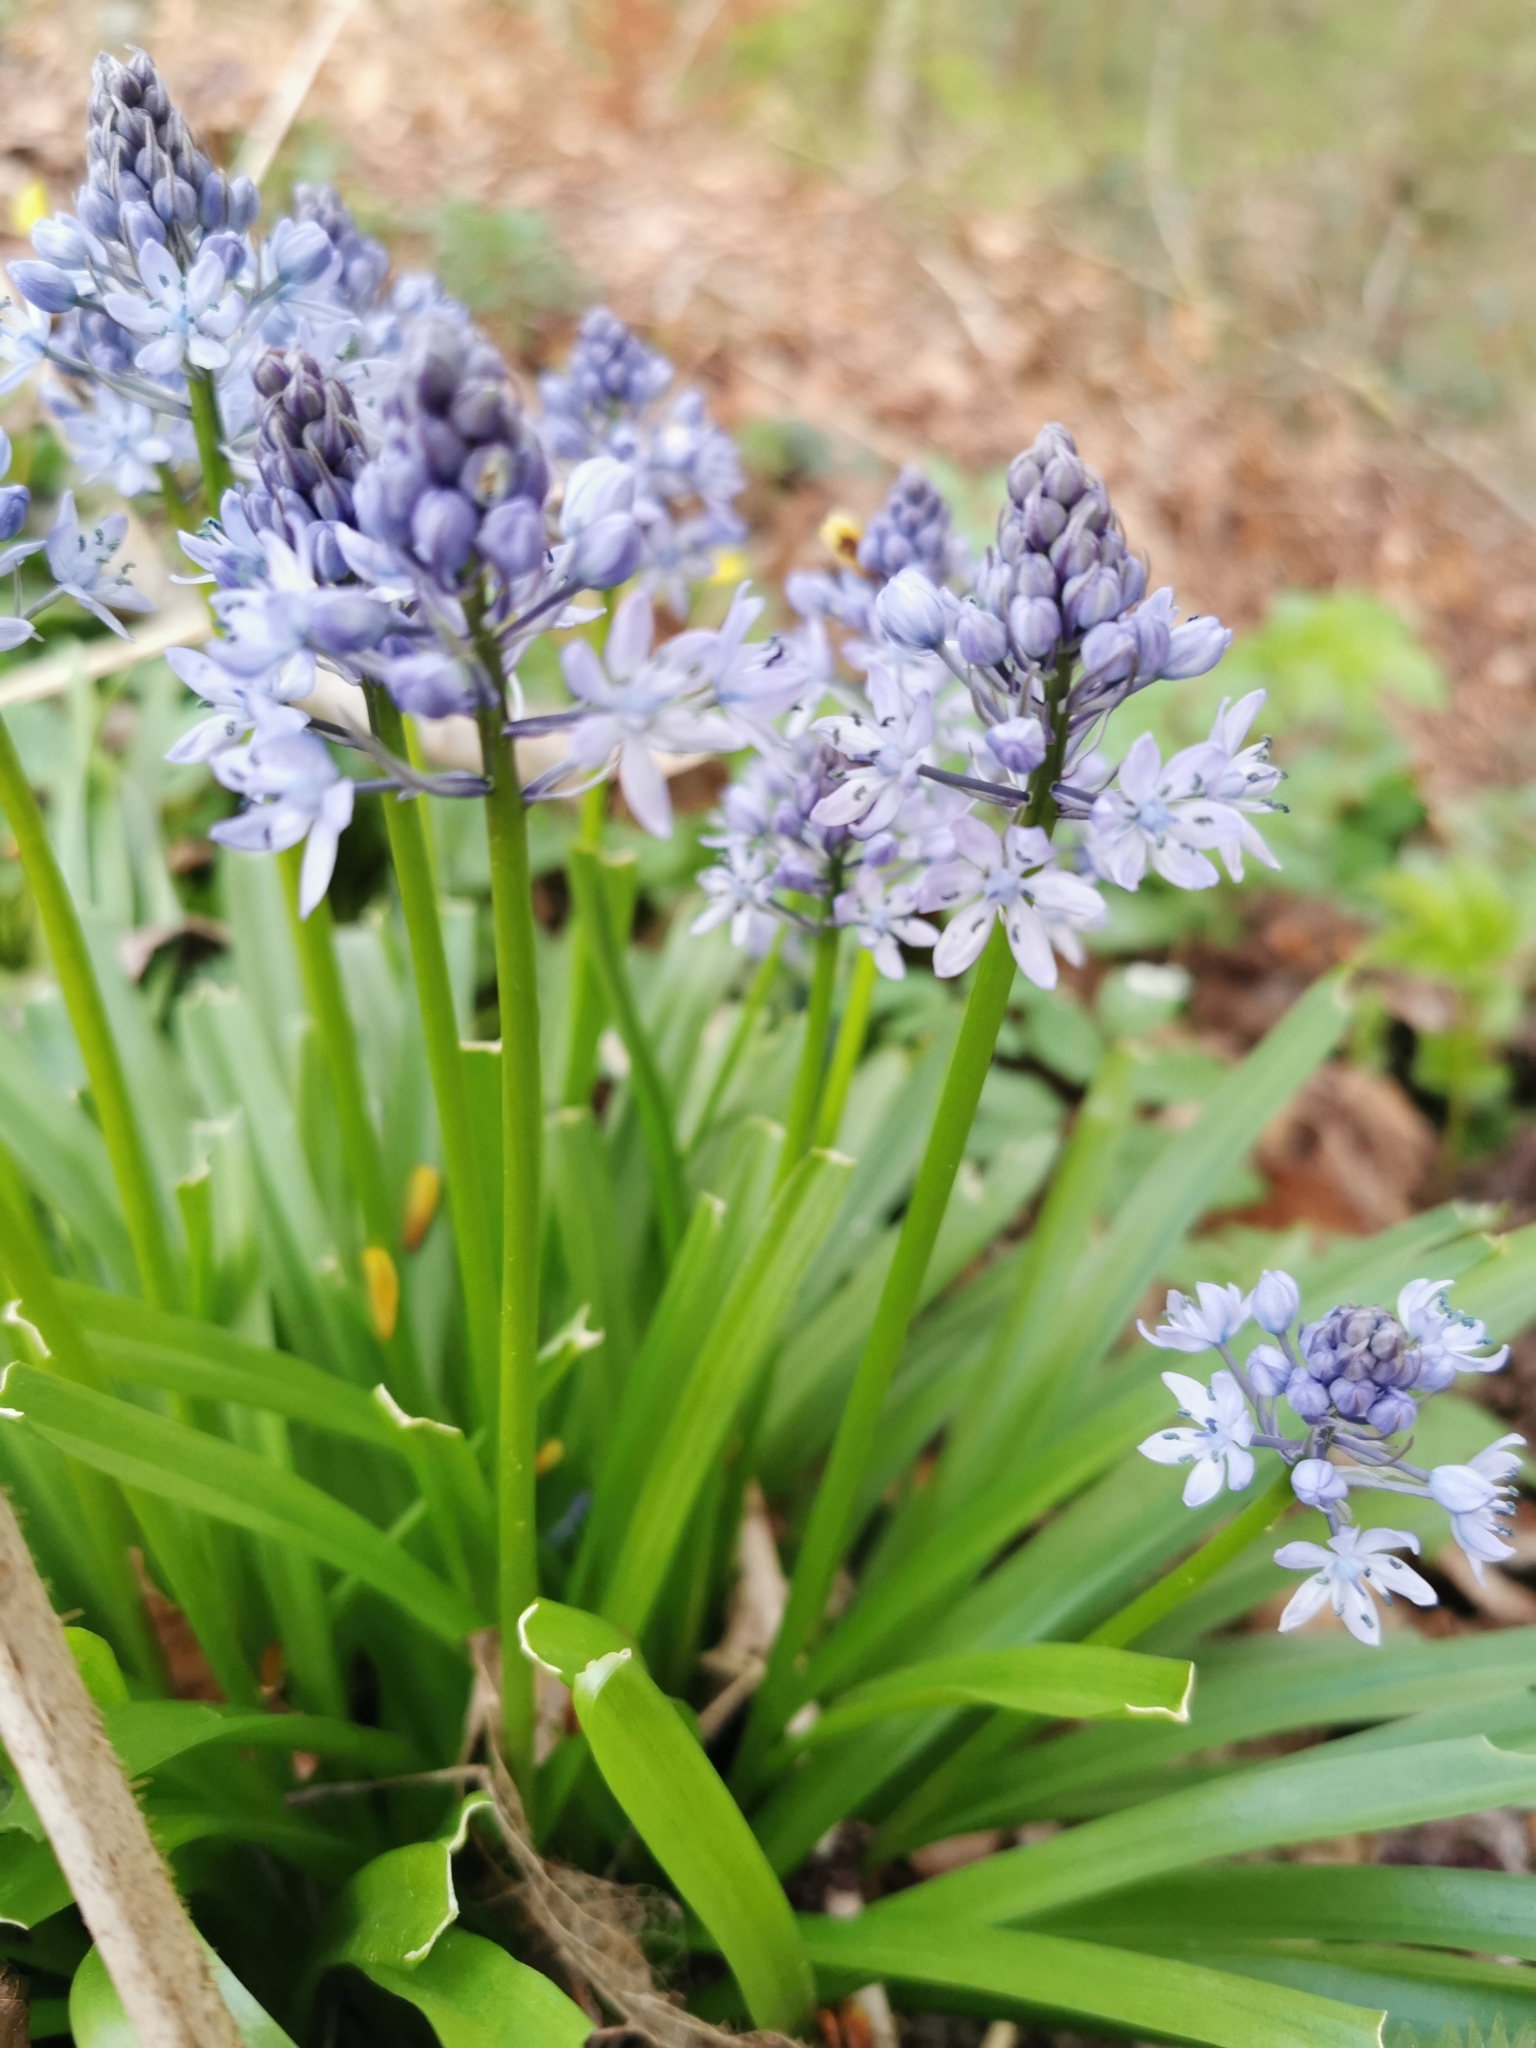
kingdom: Plantae
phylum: Tracheophyta
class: Liliopsida
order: Asparagales
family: Asparagaceae
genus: Hyacinthoides
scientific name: Hyacinthoides italica
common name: Italian bluebell
